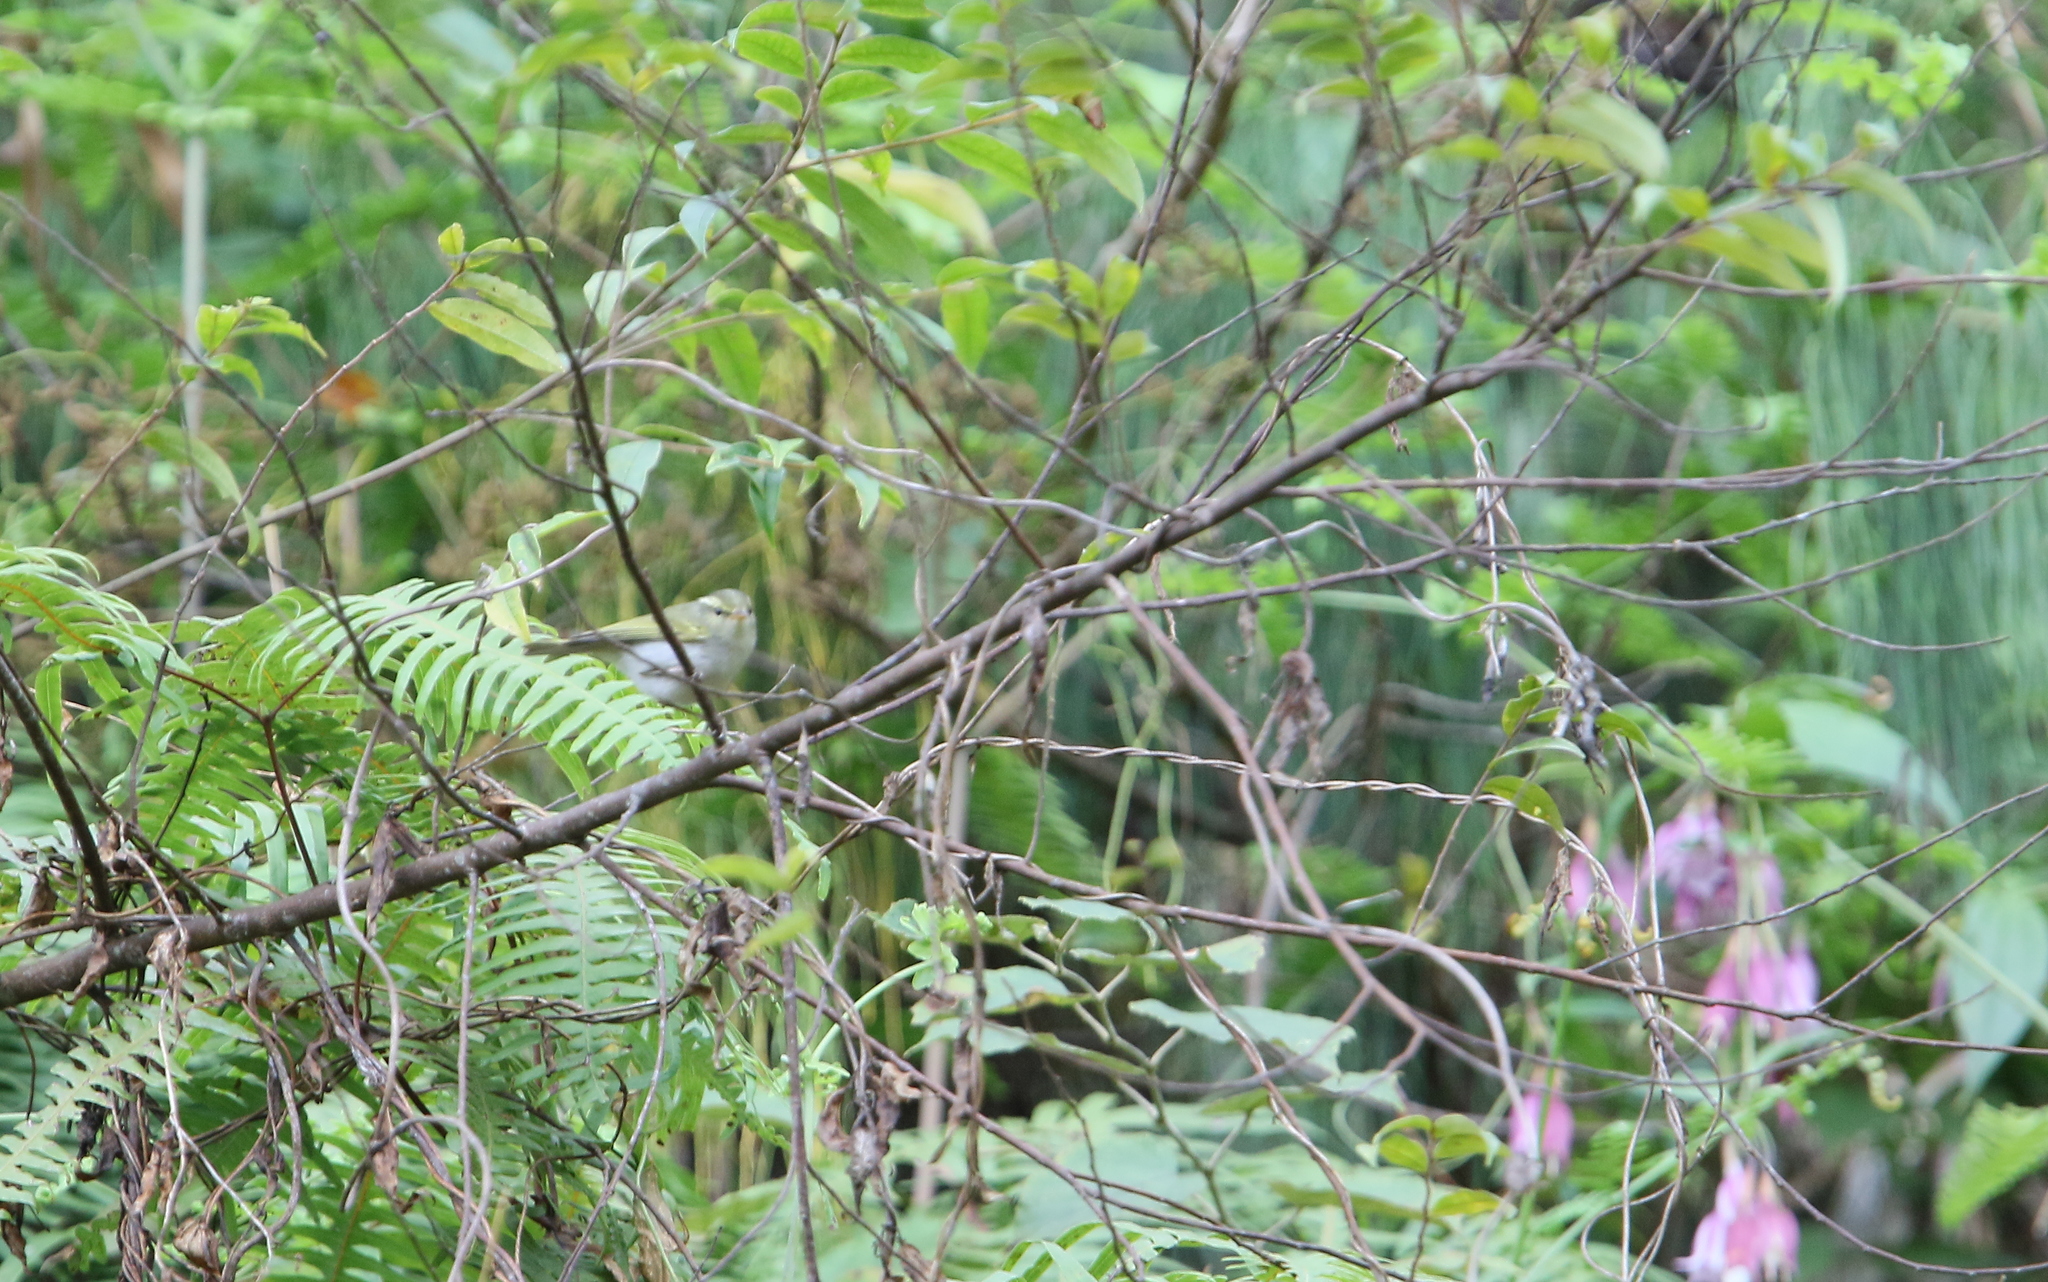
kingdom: Animalia
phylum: Chordata
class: Aves
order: Passeriformes
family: Phylloscopidae
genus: Phylloscopus
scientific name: Phylloscopus goodsoni
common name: Hartert's leaf warbler
